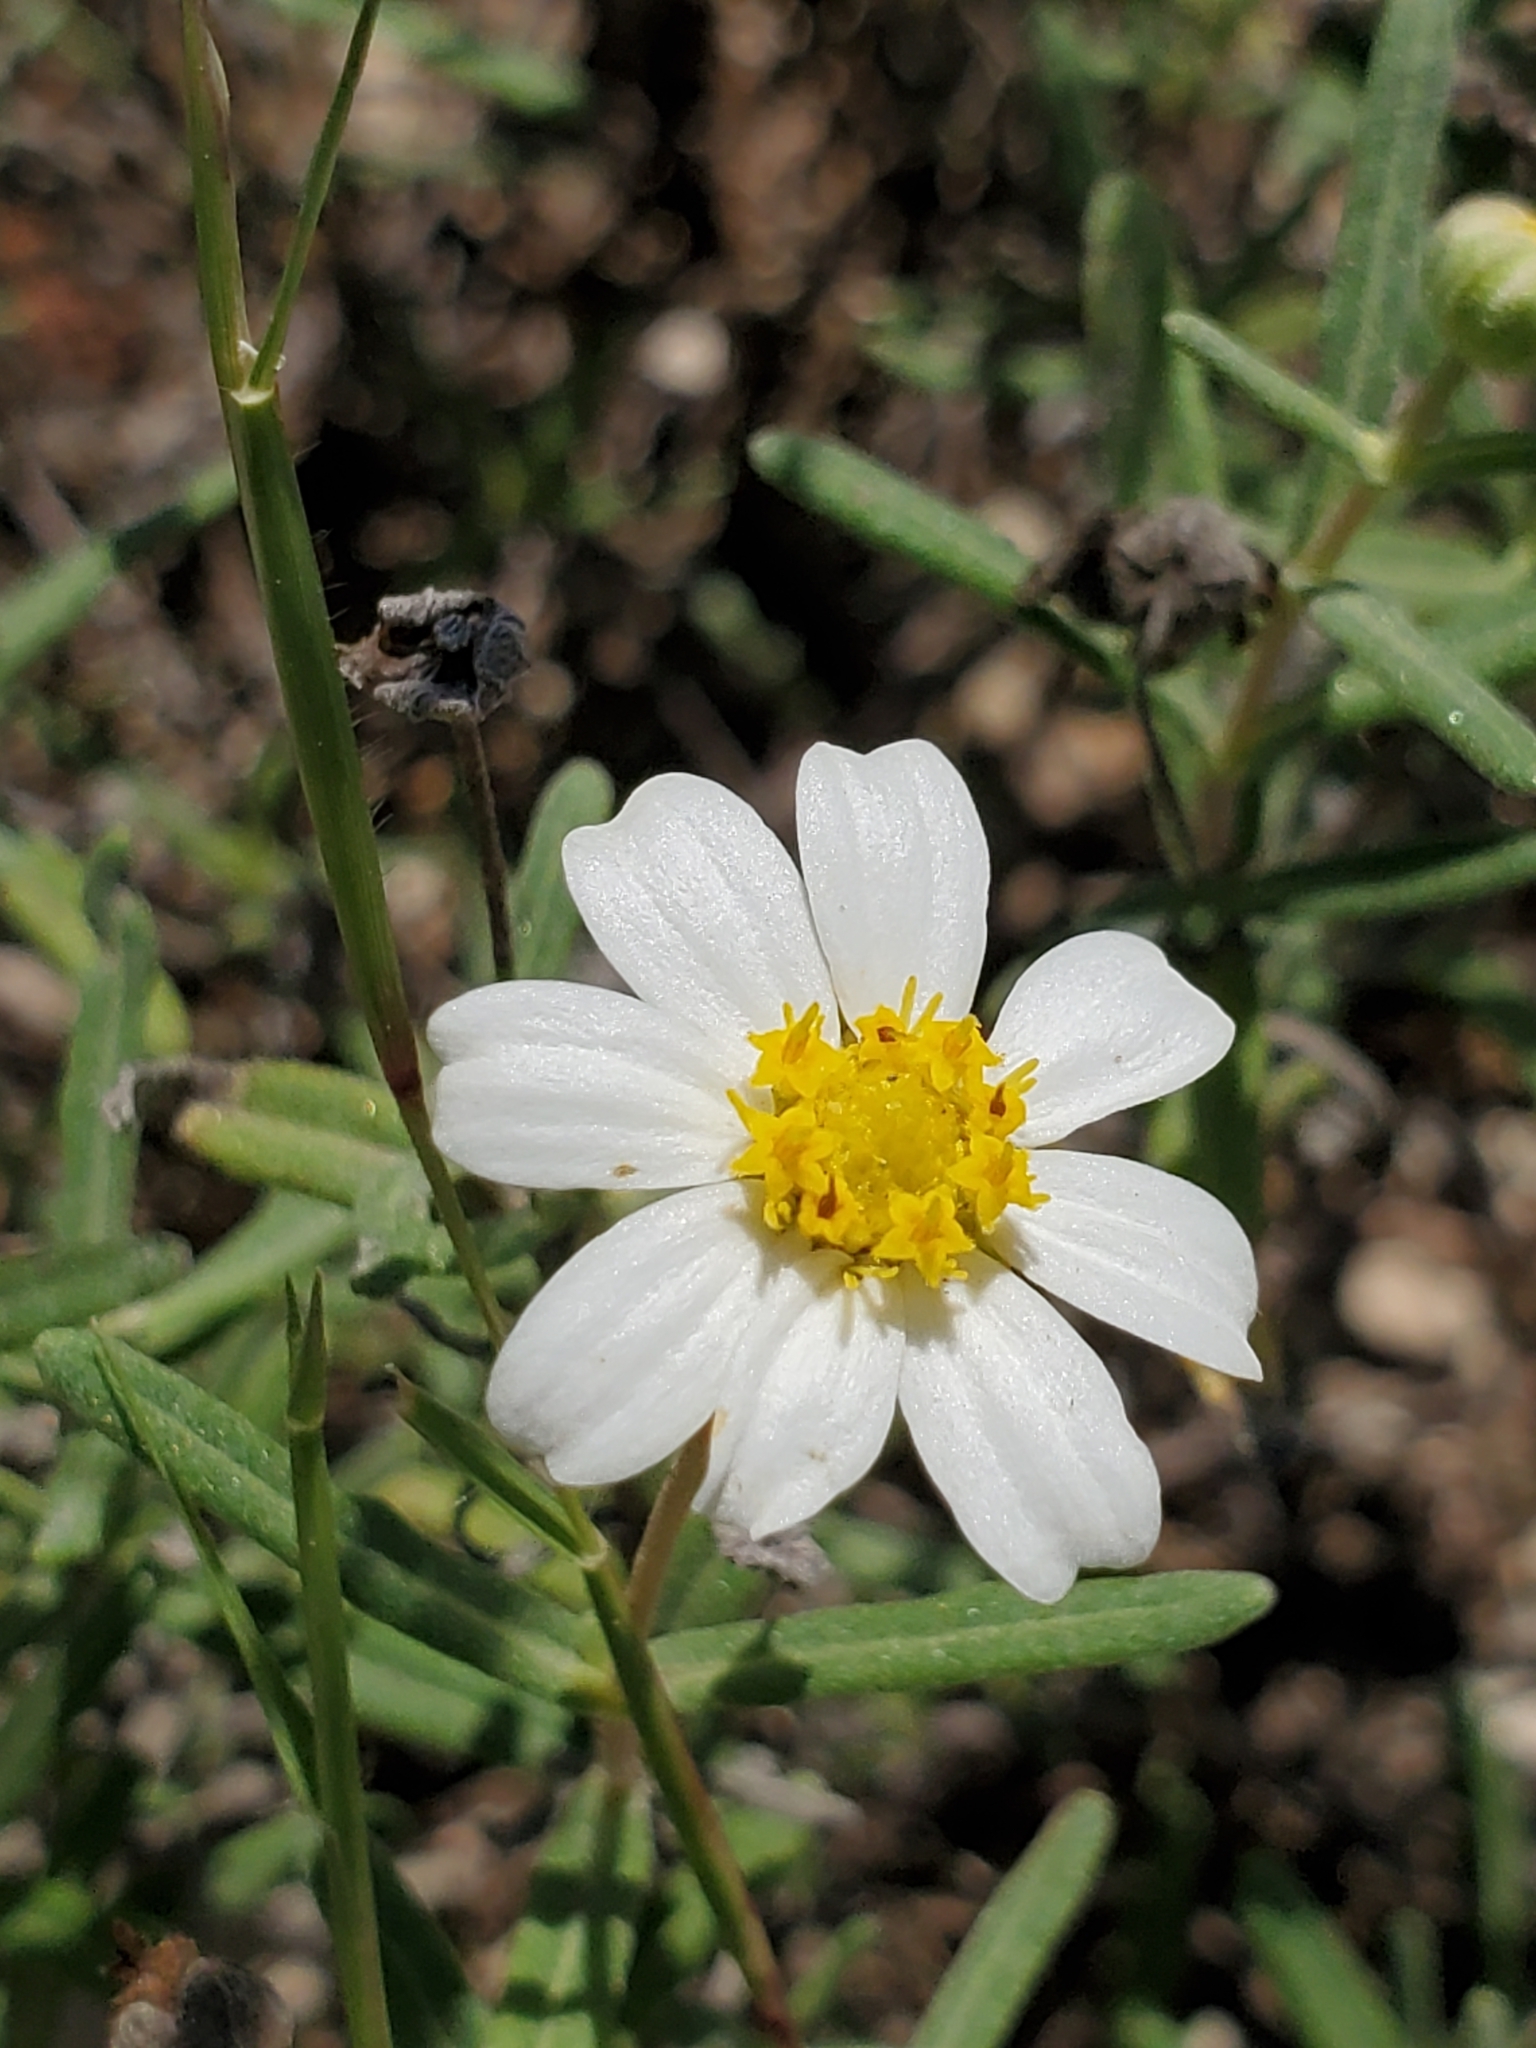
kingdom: Plantae
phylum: Tracheophyta
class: Magnoliopsida
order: Asterales
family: Asteraceae
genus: Melampodium
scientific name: Melampodium leucanthum
